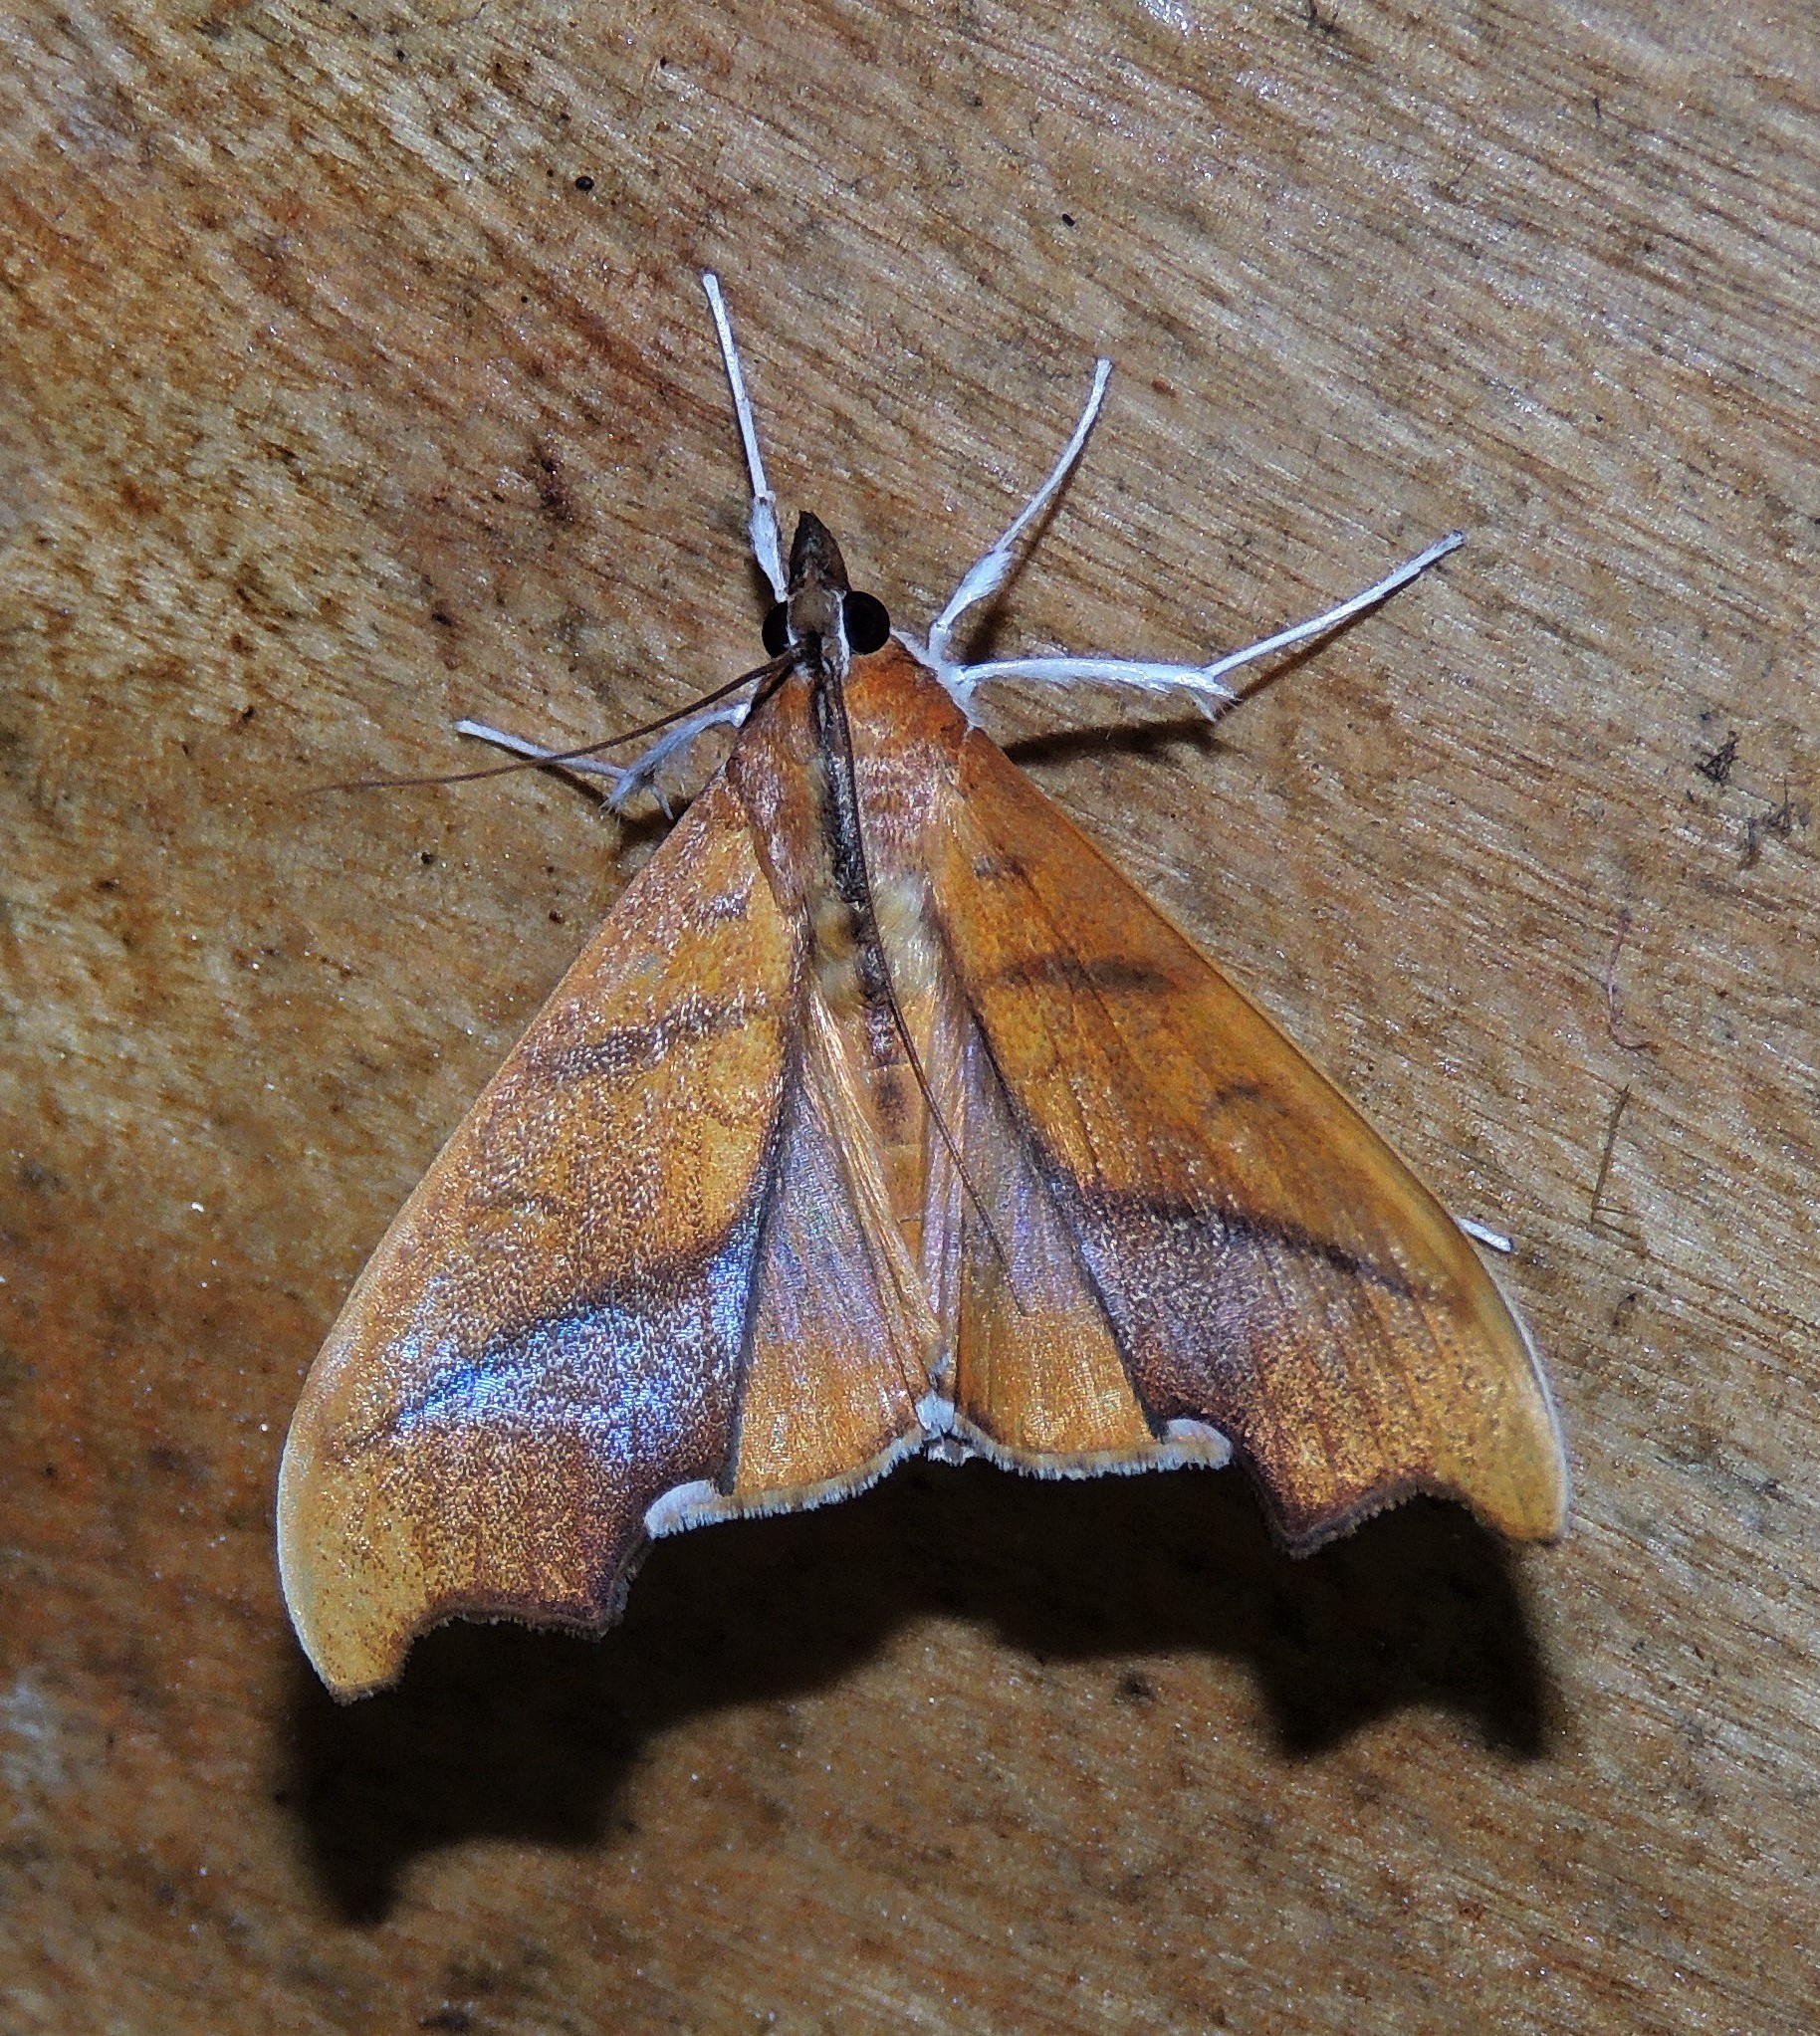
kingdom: Animalia
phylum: Arthropoda
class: Insecta
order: Lepidoptera
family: Crambidae
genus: Sparagmia
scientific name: Sparagmia gonoptera
